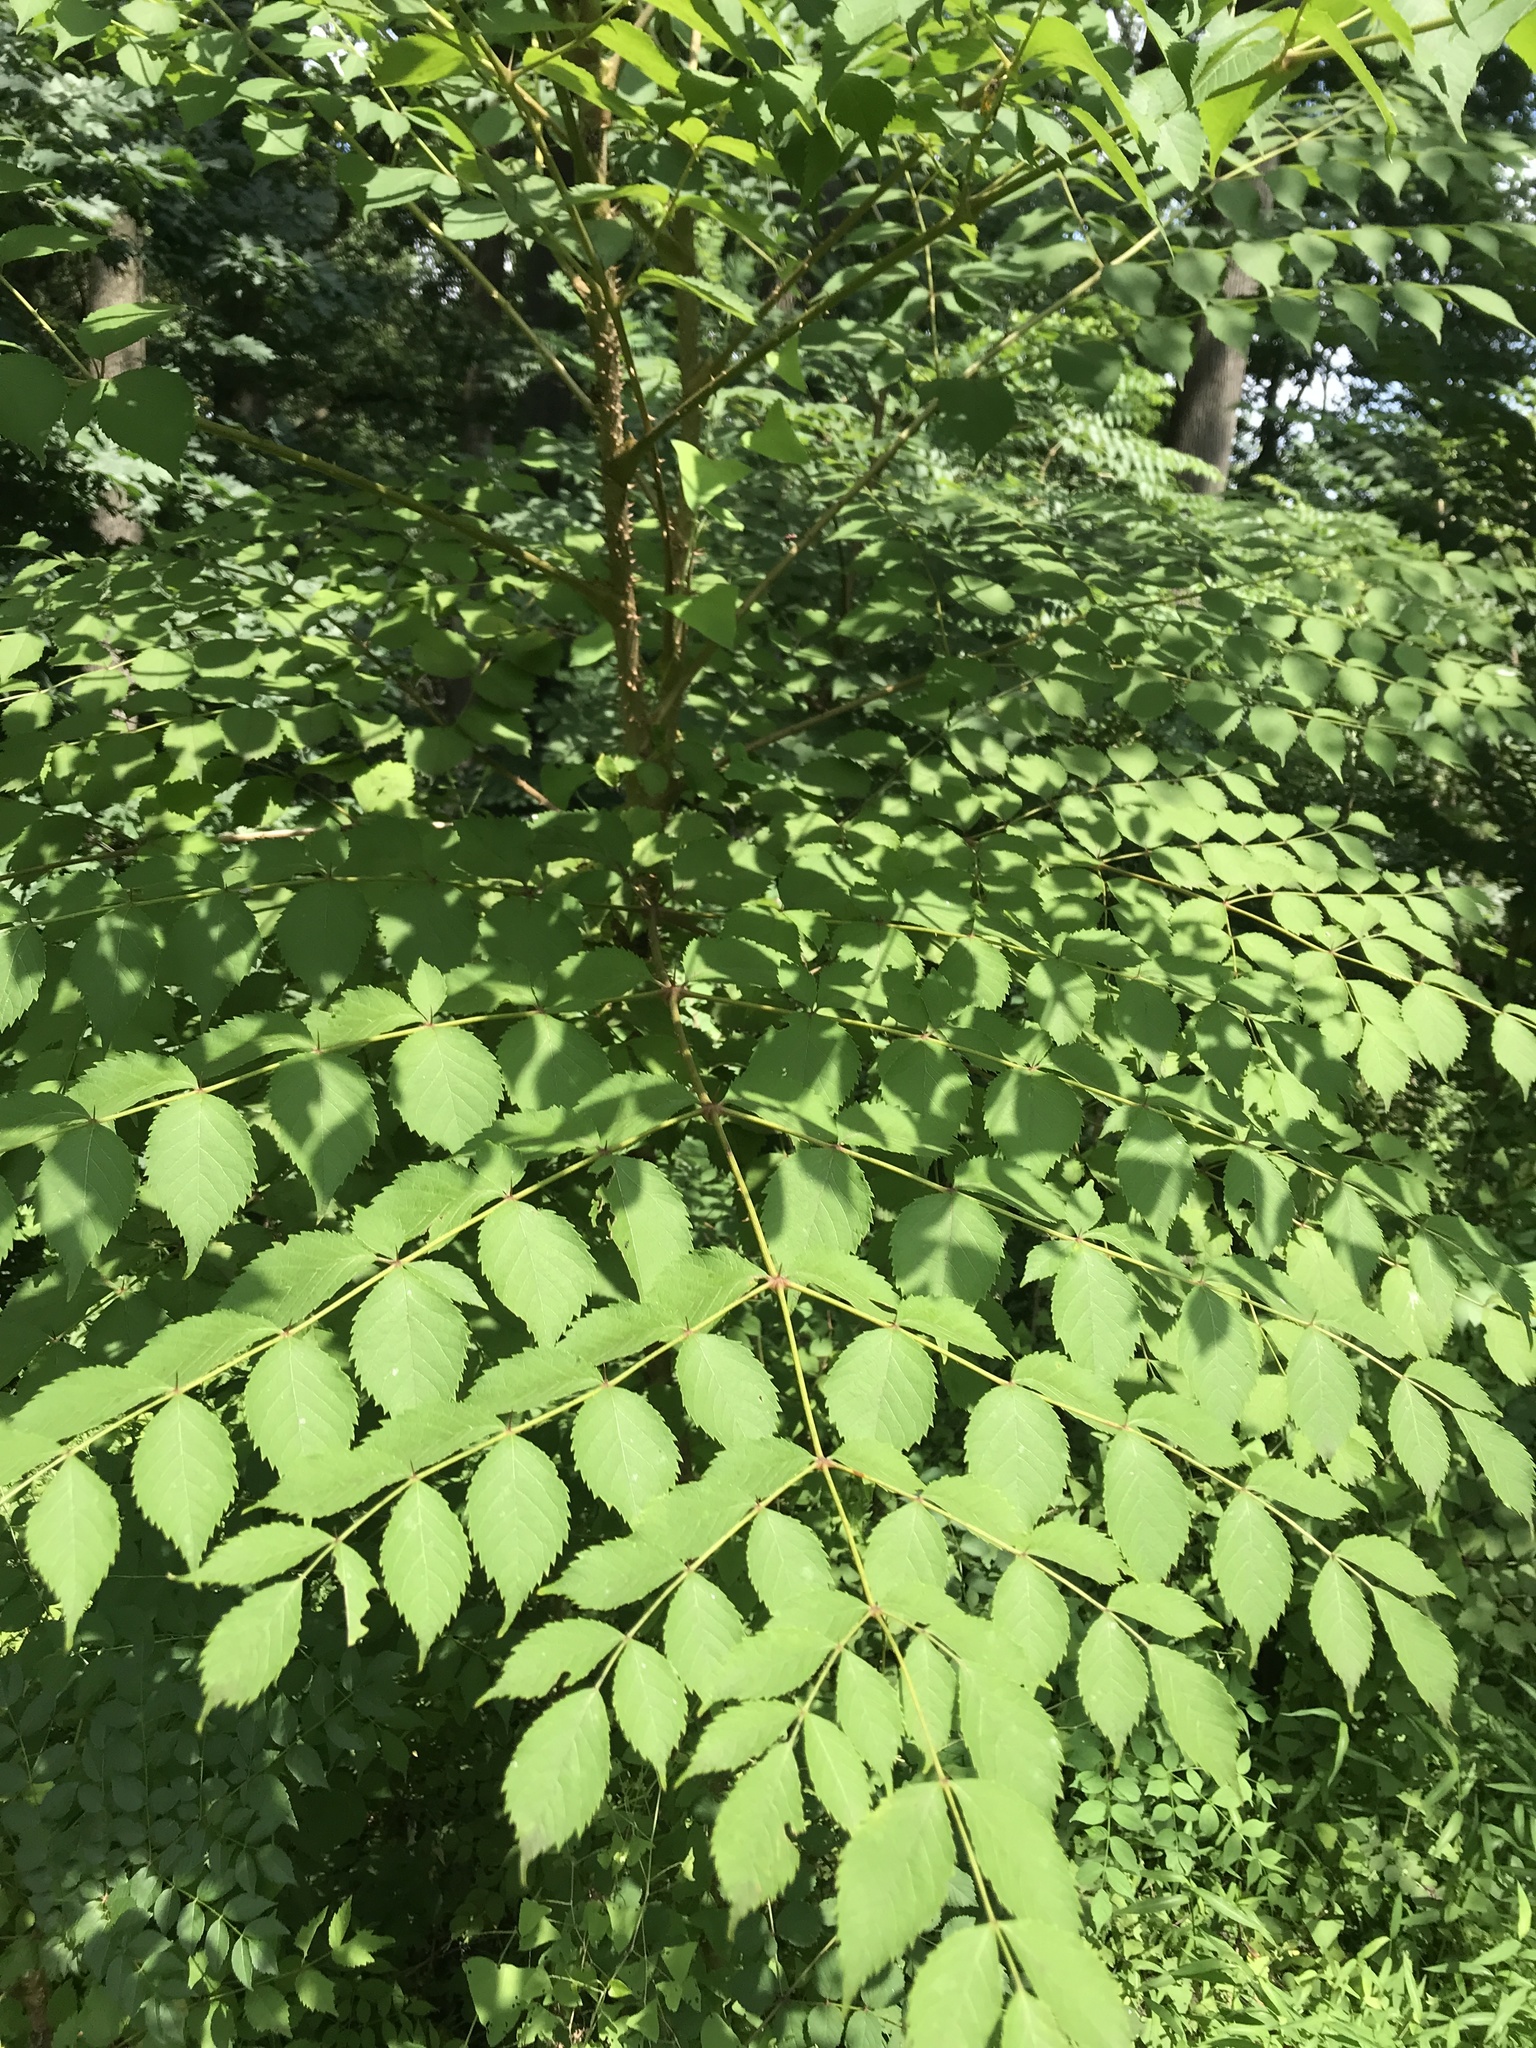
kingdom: Plantae
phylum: Tracheophyta
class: Magnoliopsida
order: Apiales
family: Araliaceae
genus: Aralia
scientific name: Aralia elata
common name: Japanese angelica-tree
